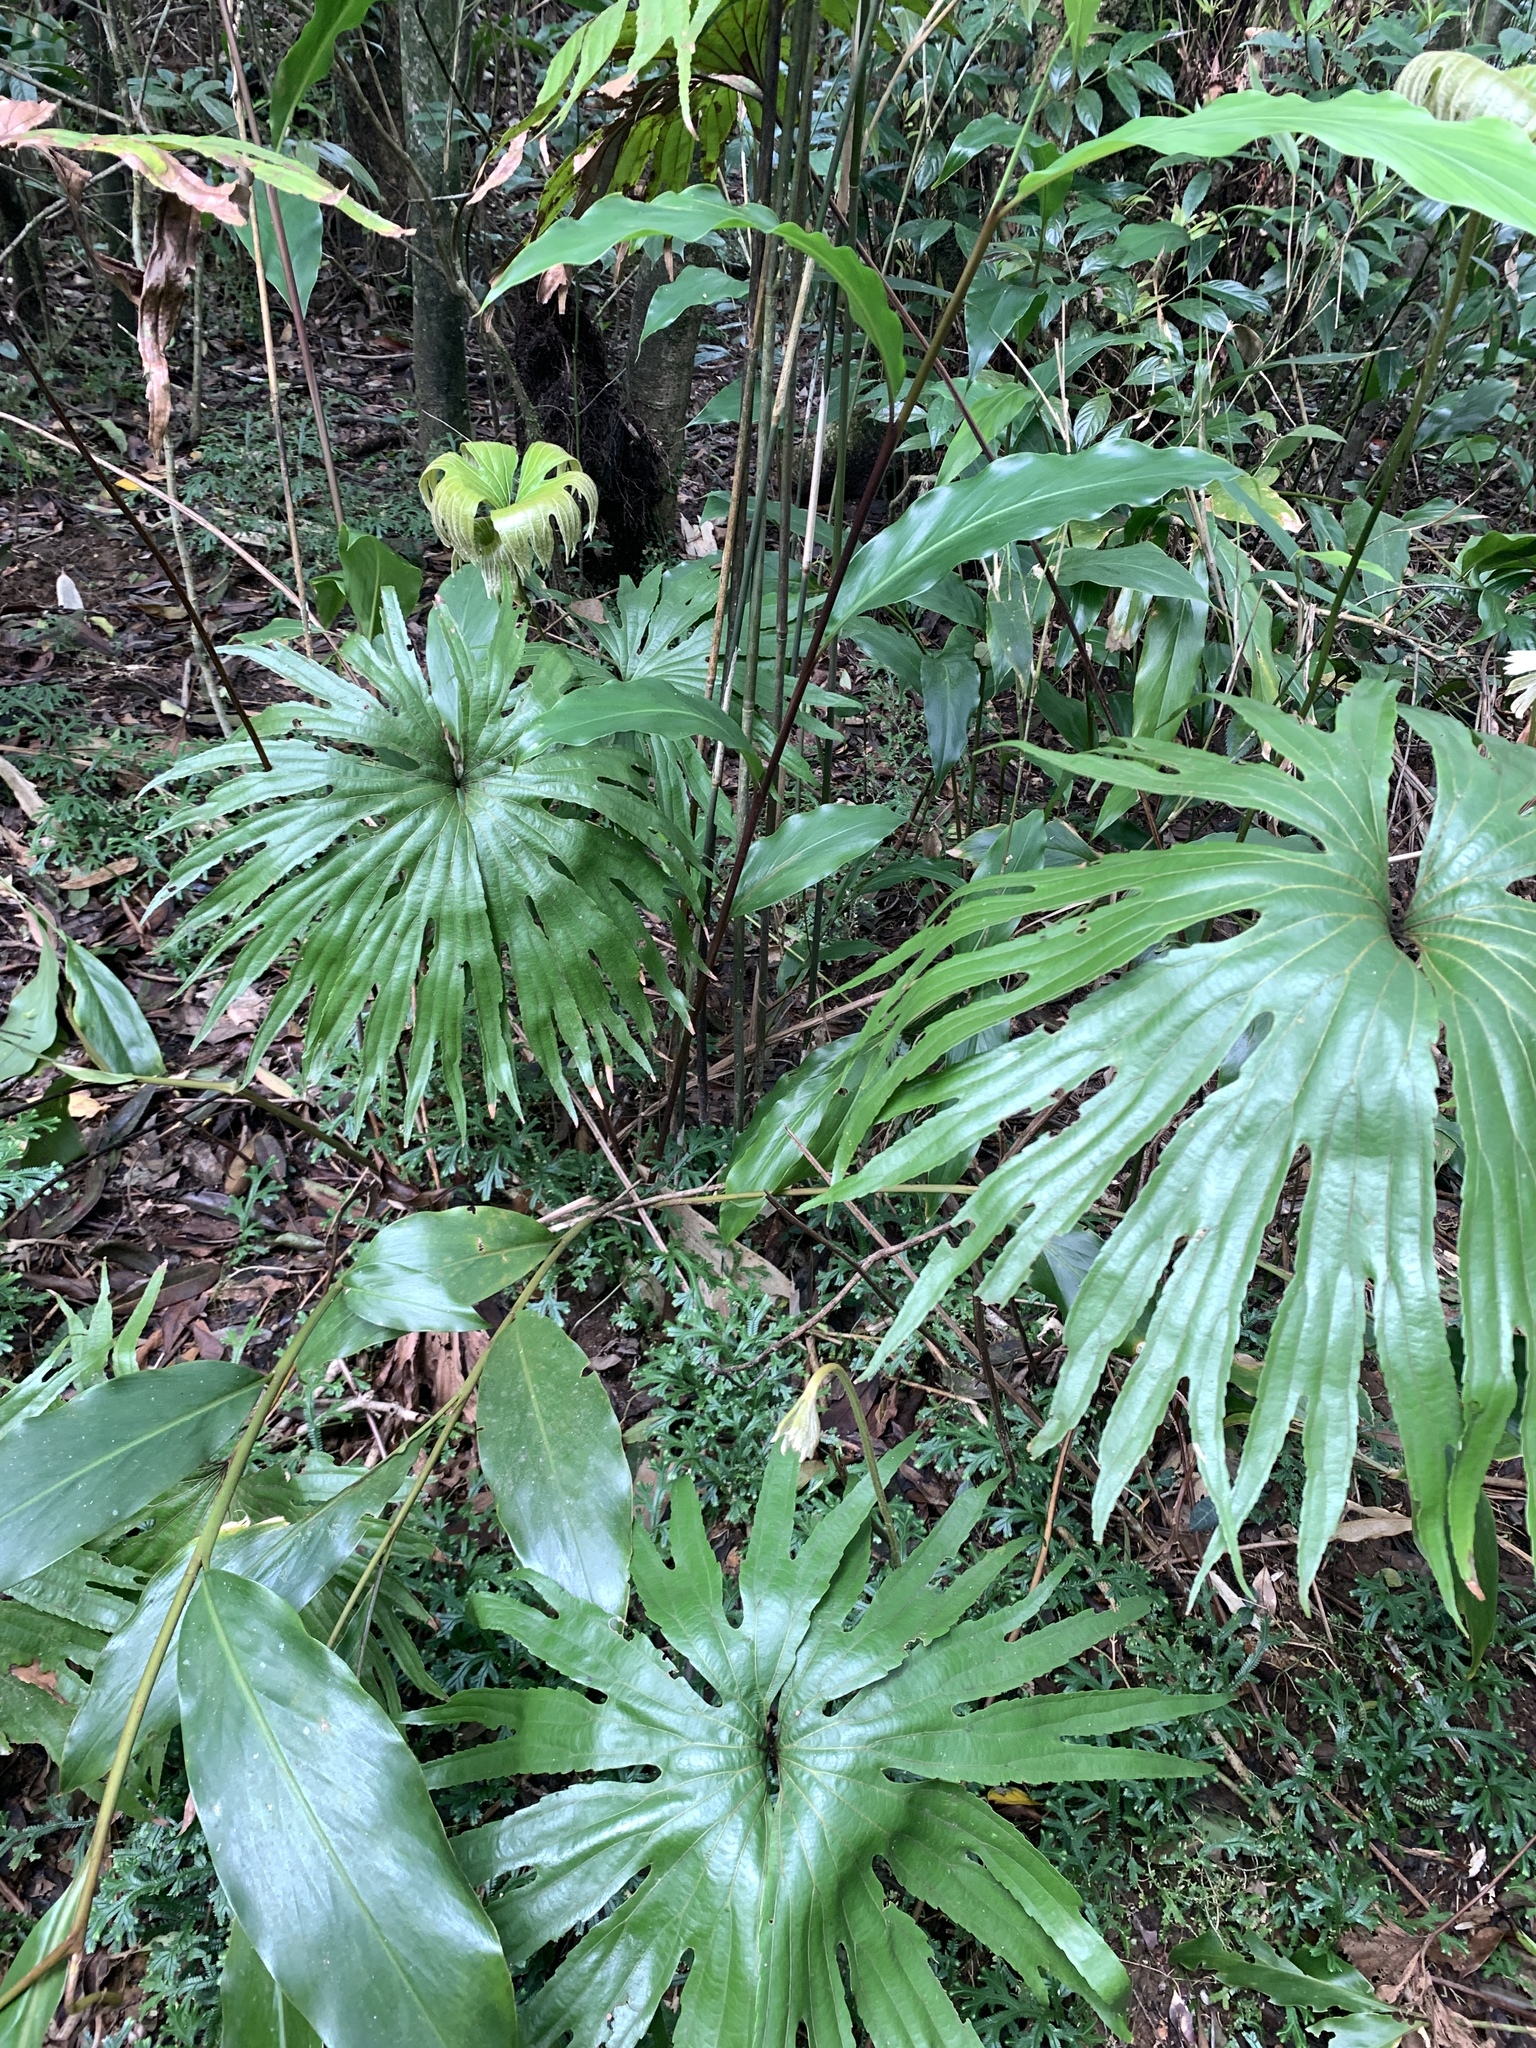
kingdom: Plantae
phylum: Tracheophyta
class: Polypodiopsida
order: Gleicheniales
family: Dipteridaceae
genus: Dipteris
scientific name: Dipteris conjugata
